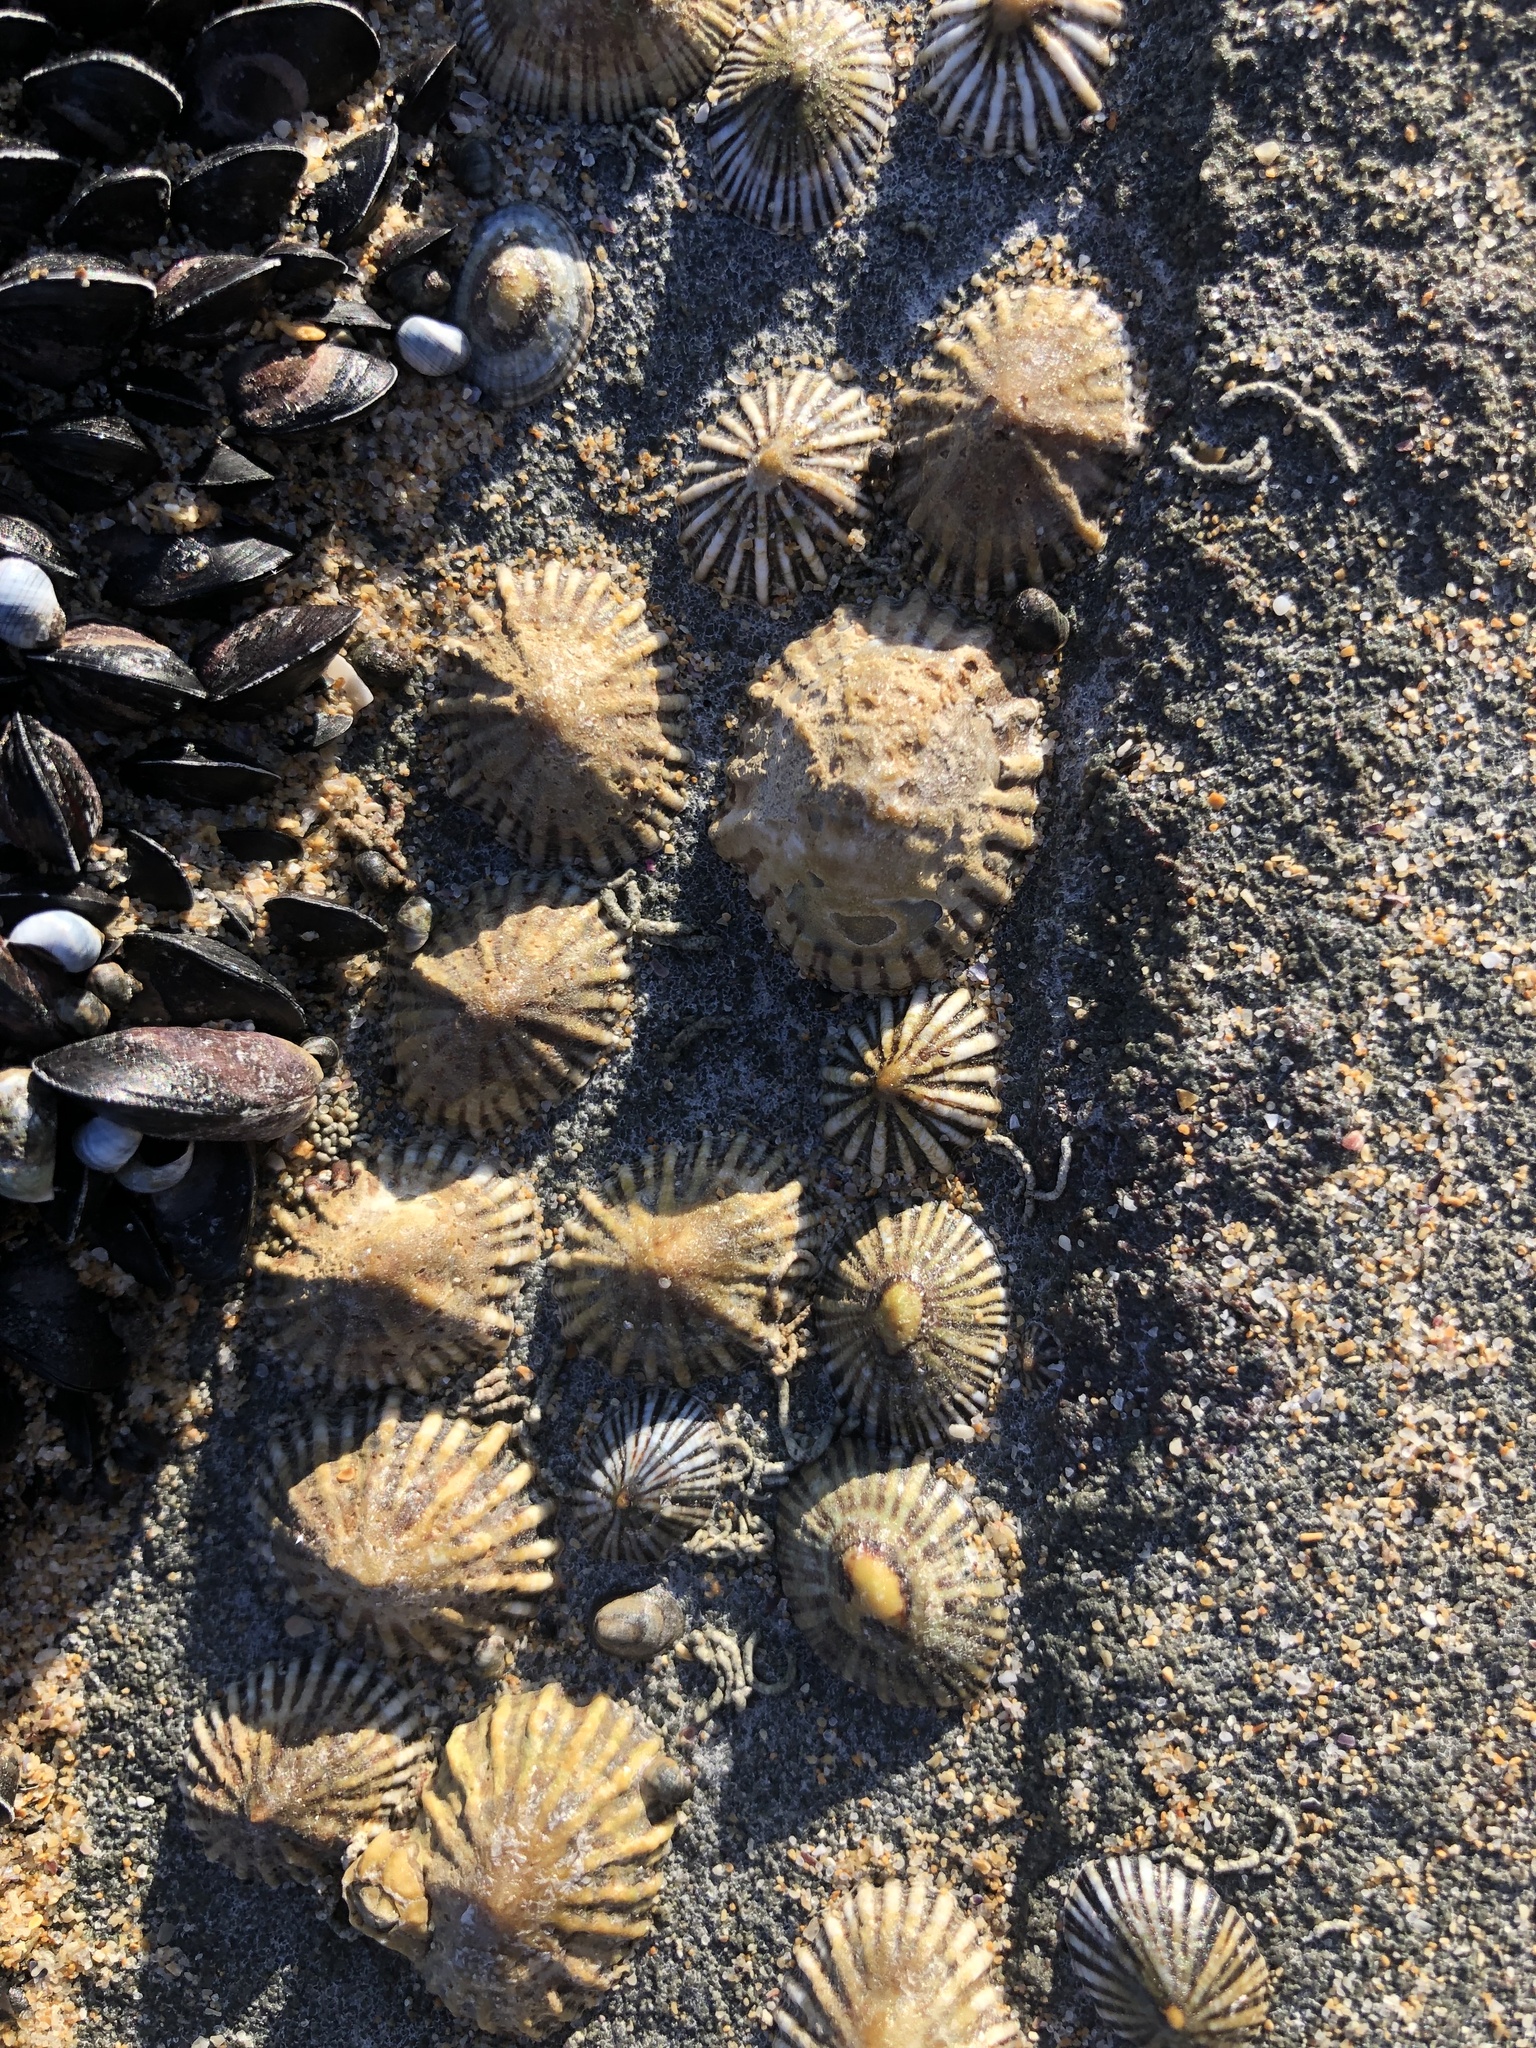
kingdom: Animalia
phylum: Mollusca
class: Gastropoda
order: Siphonariida
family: Siphonariidae
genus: Siphonaria
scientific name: Siphonaria diemenensis
